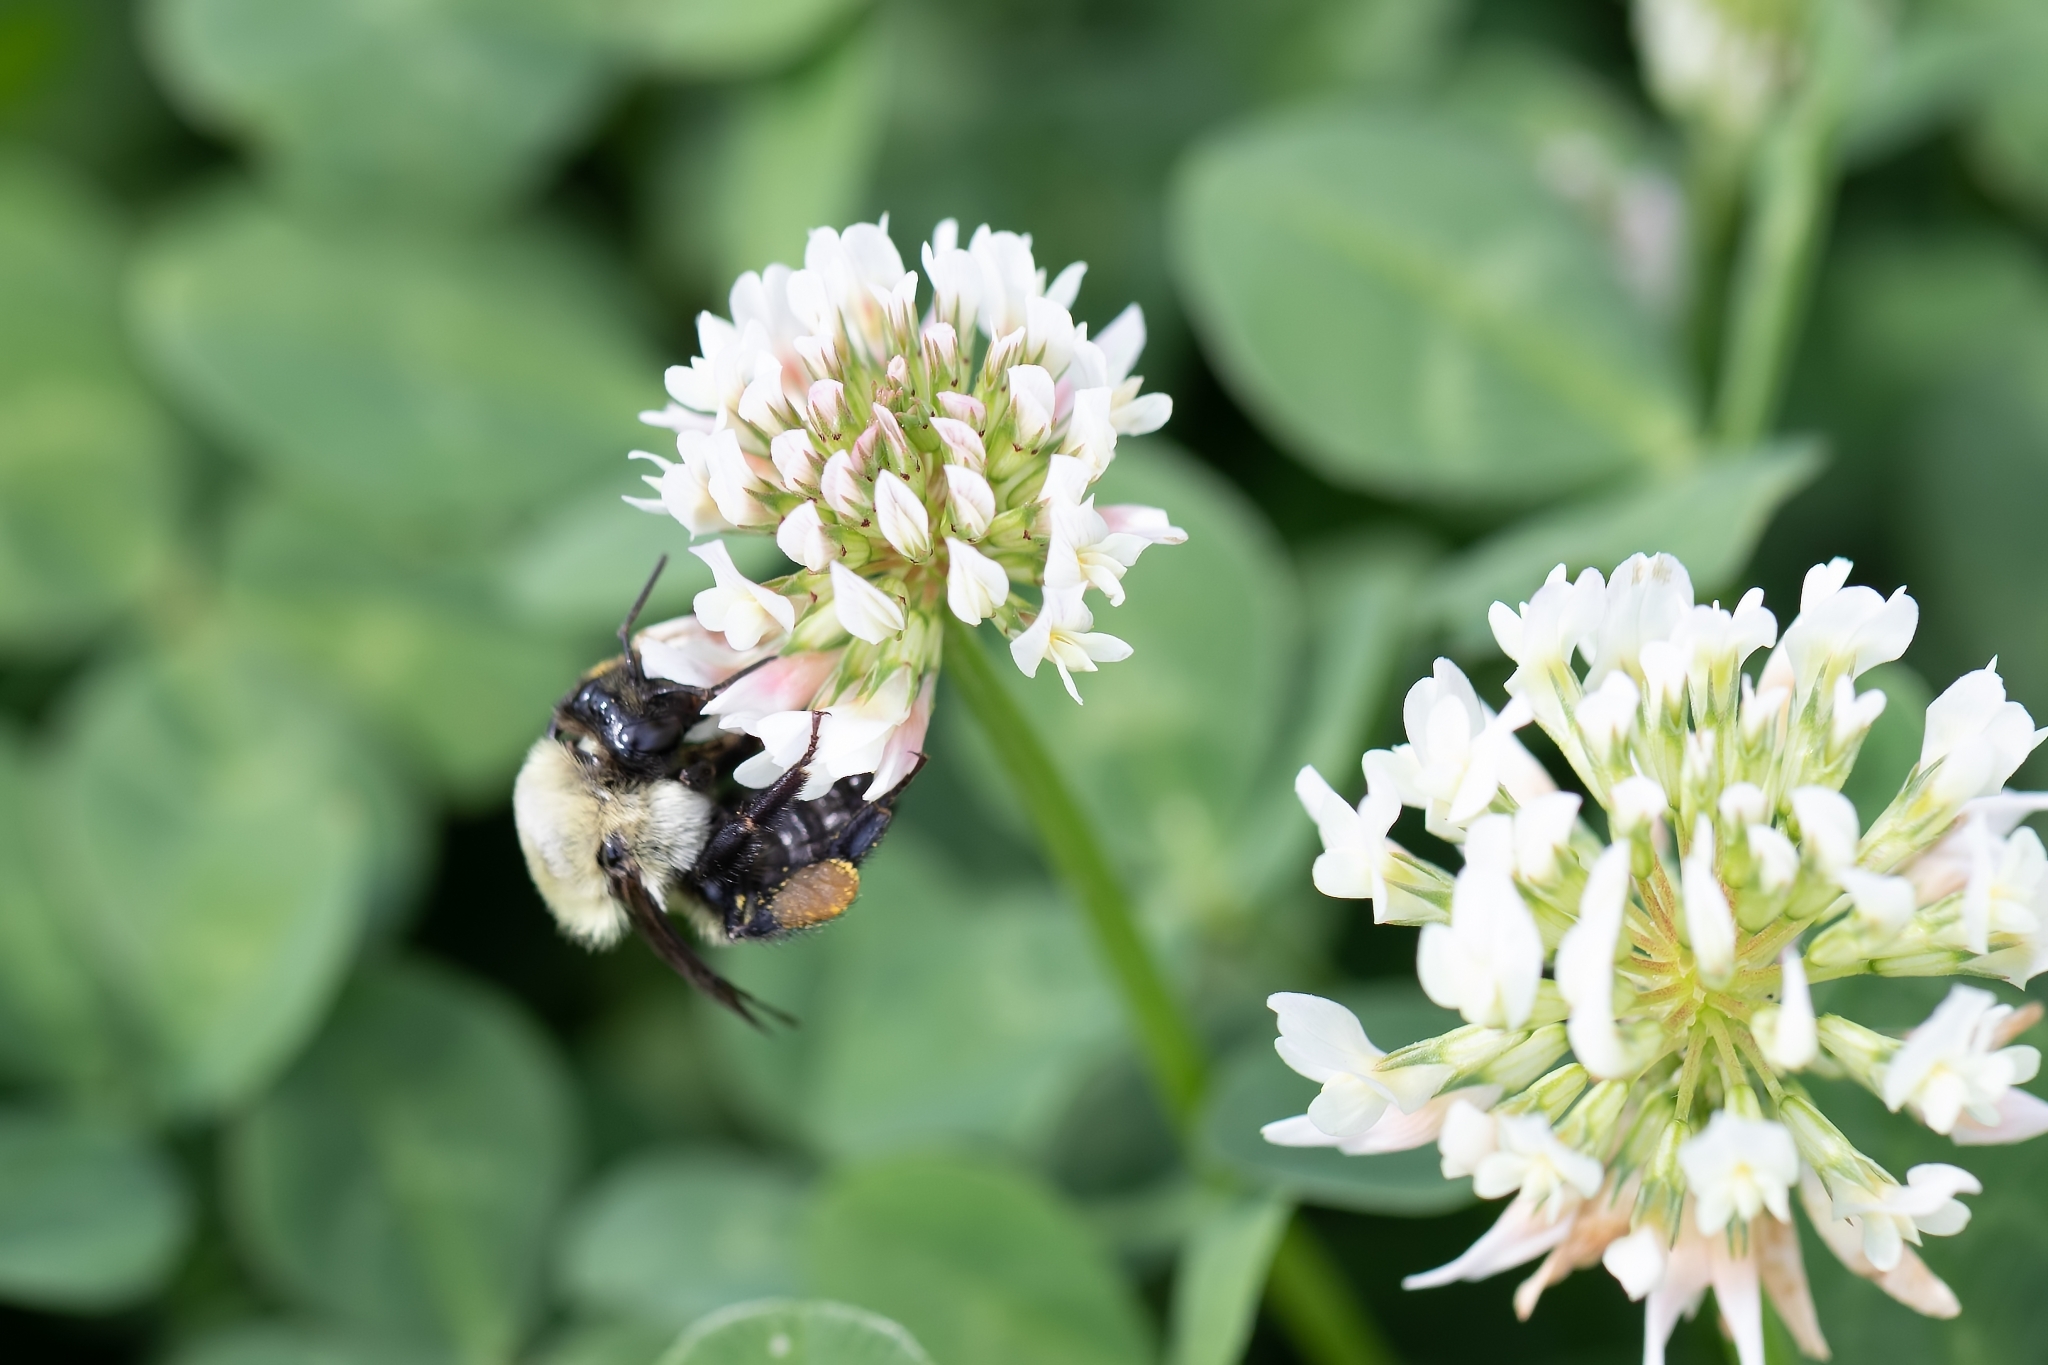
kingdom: Animalia
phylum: Arthropoda
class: Insecta
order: Hymenoptera
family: Apidae
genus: Bombus
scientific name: Bombus griseocollis
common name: Brown-belted bumble bee
